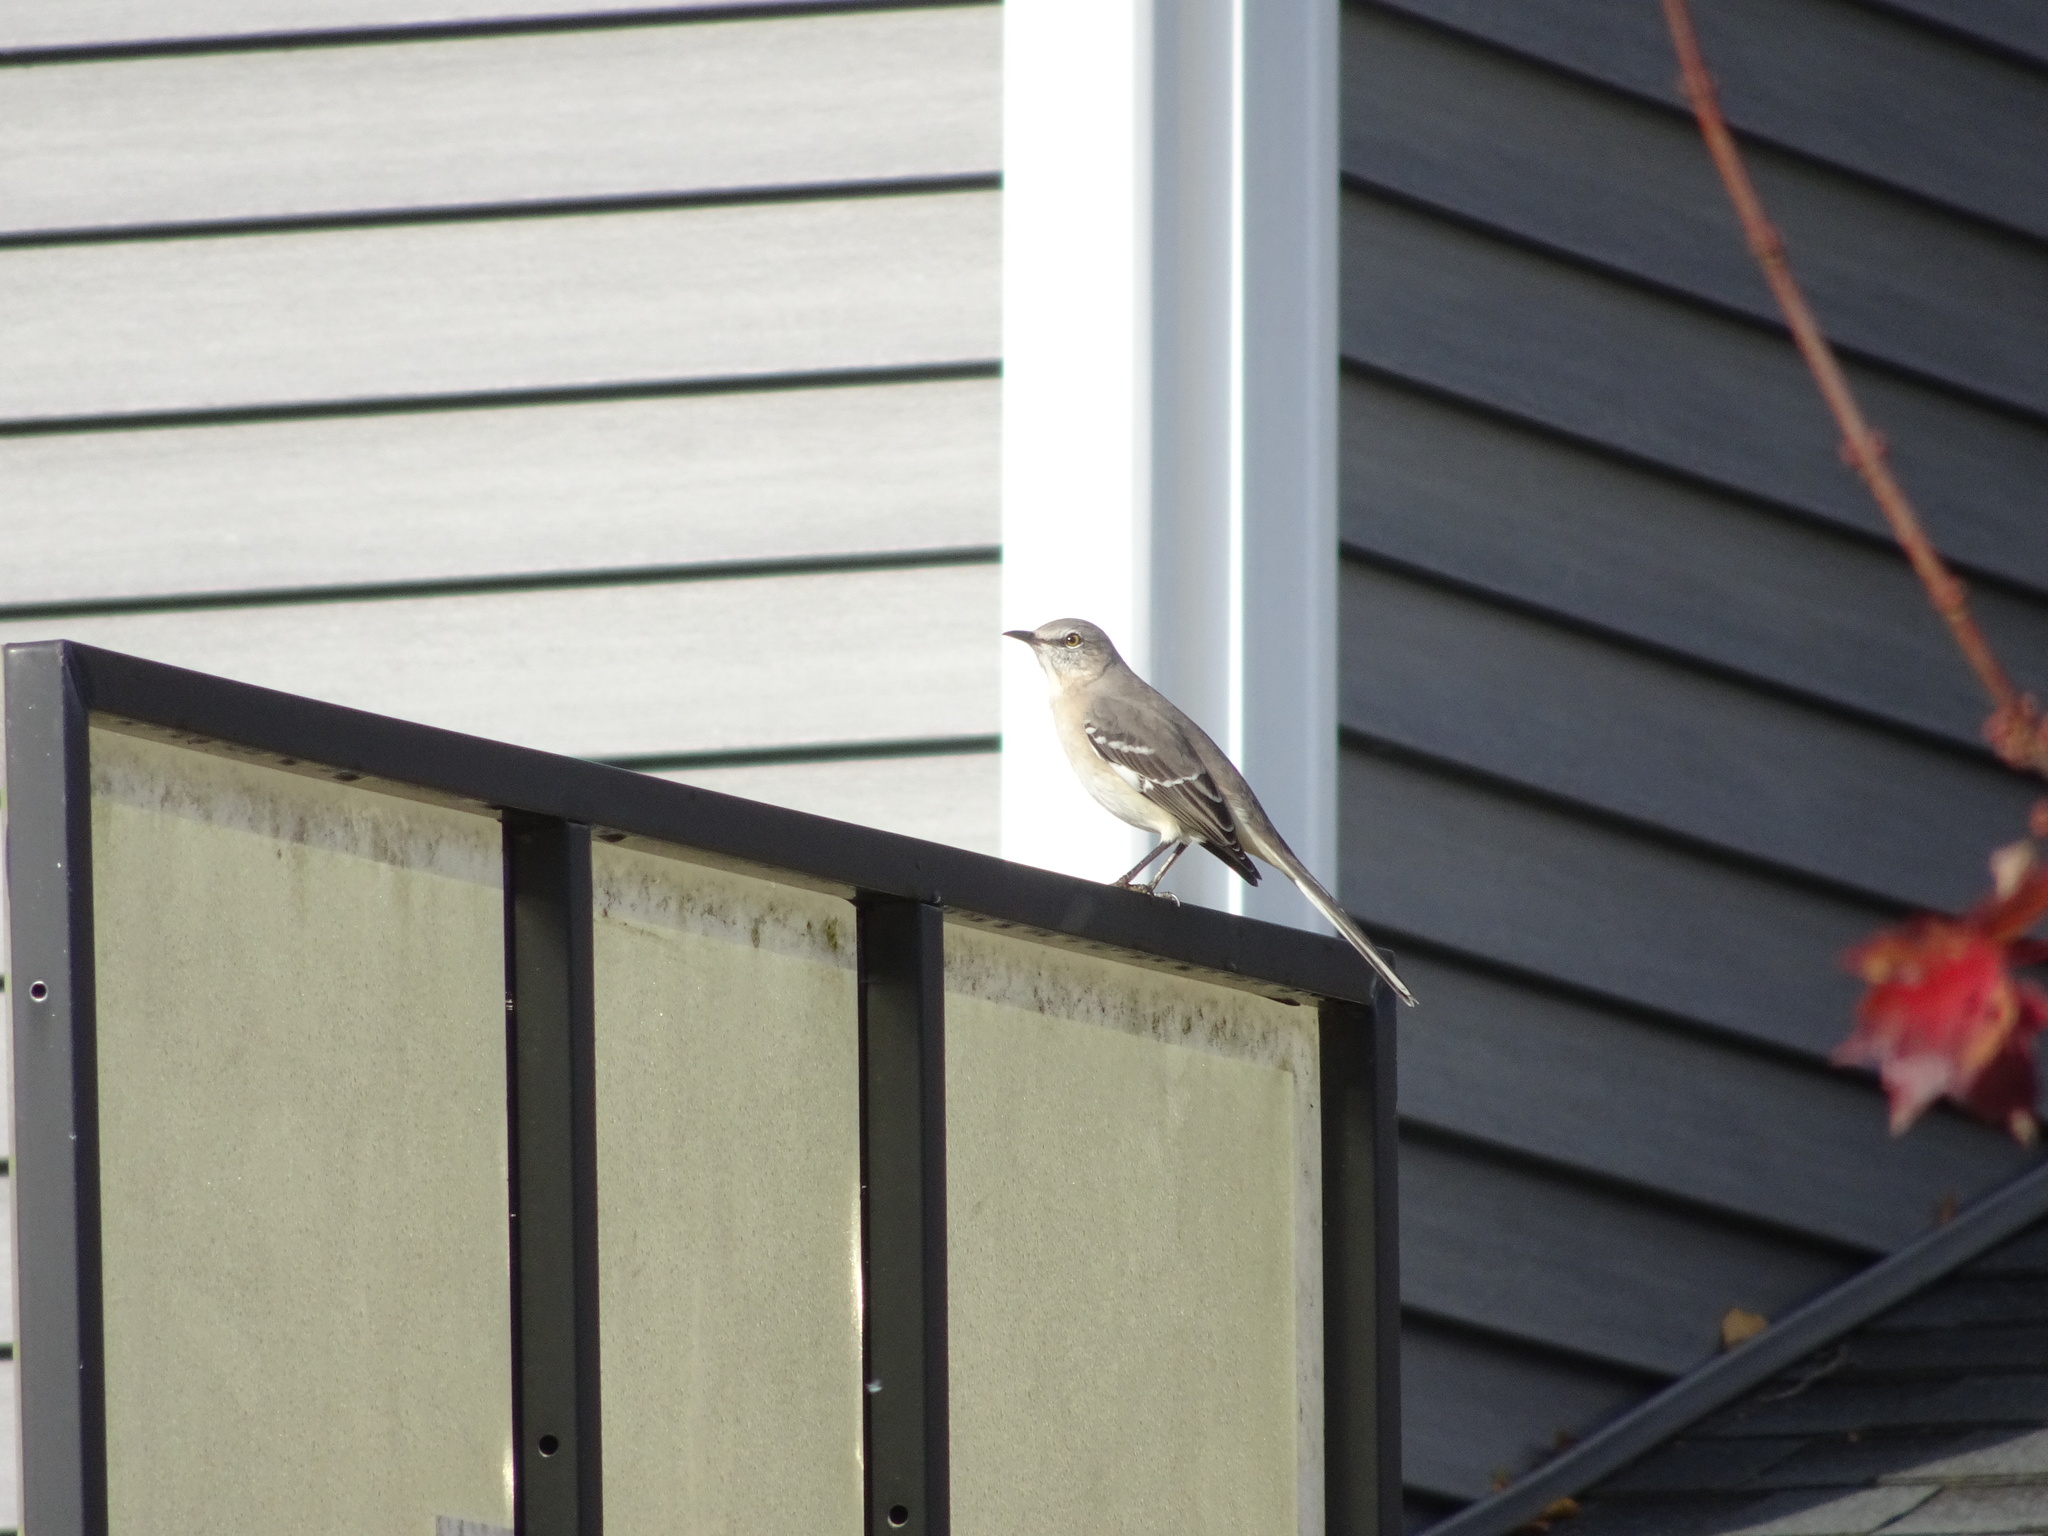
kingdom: Animalia
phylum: Chordata
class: Aves
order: Passeriformes
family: Mimidae
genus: Mimus
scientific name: Mimus polyglottos
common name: Northern mockingbird
